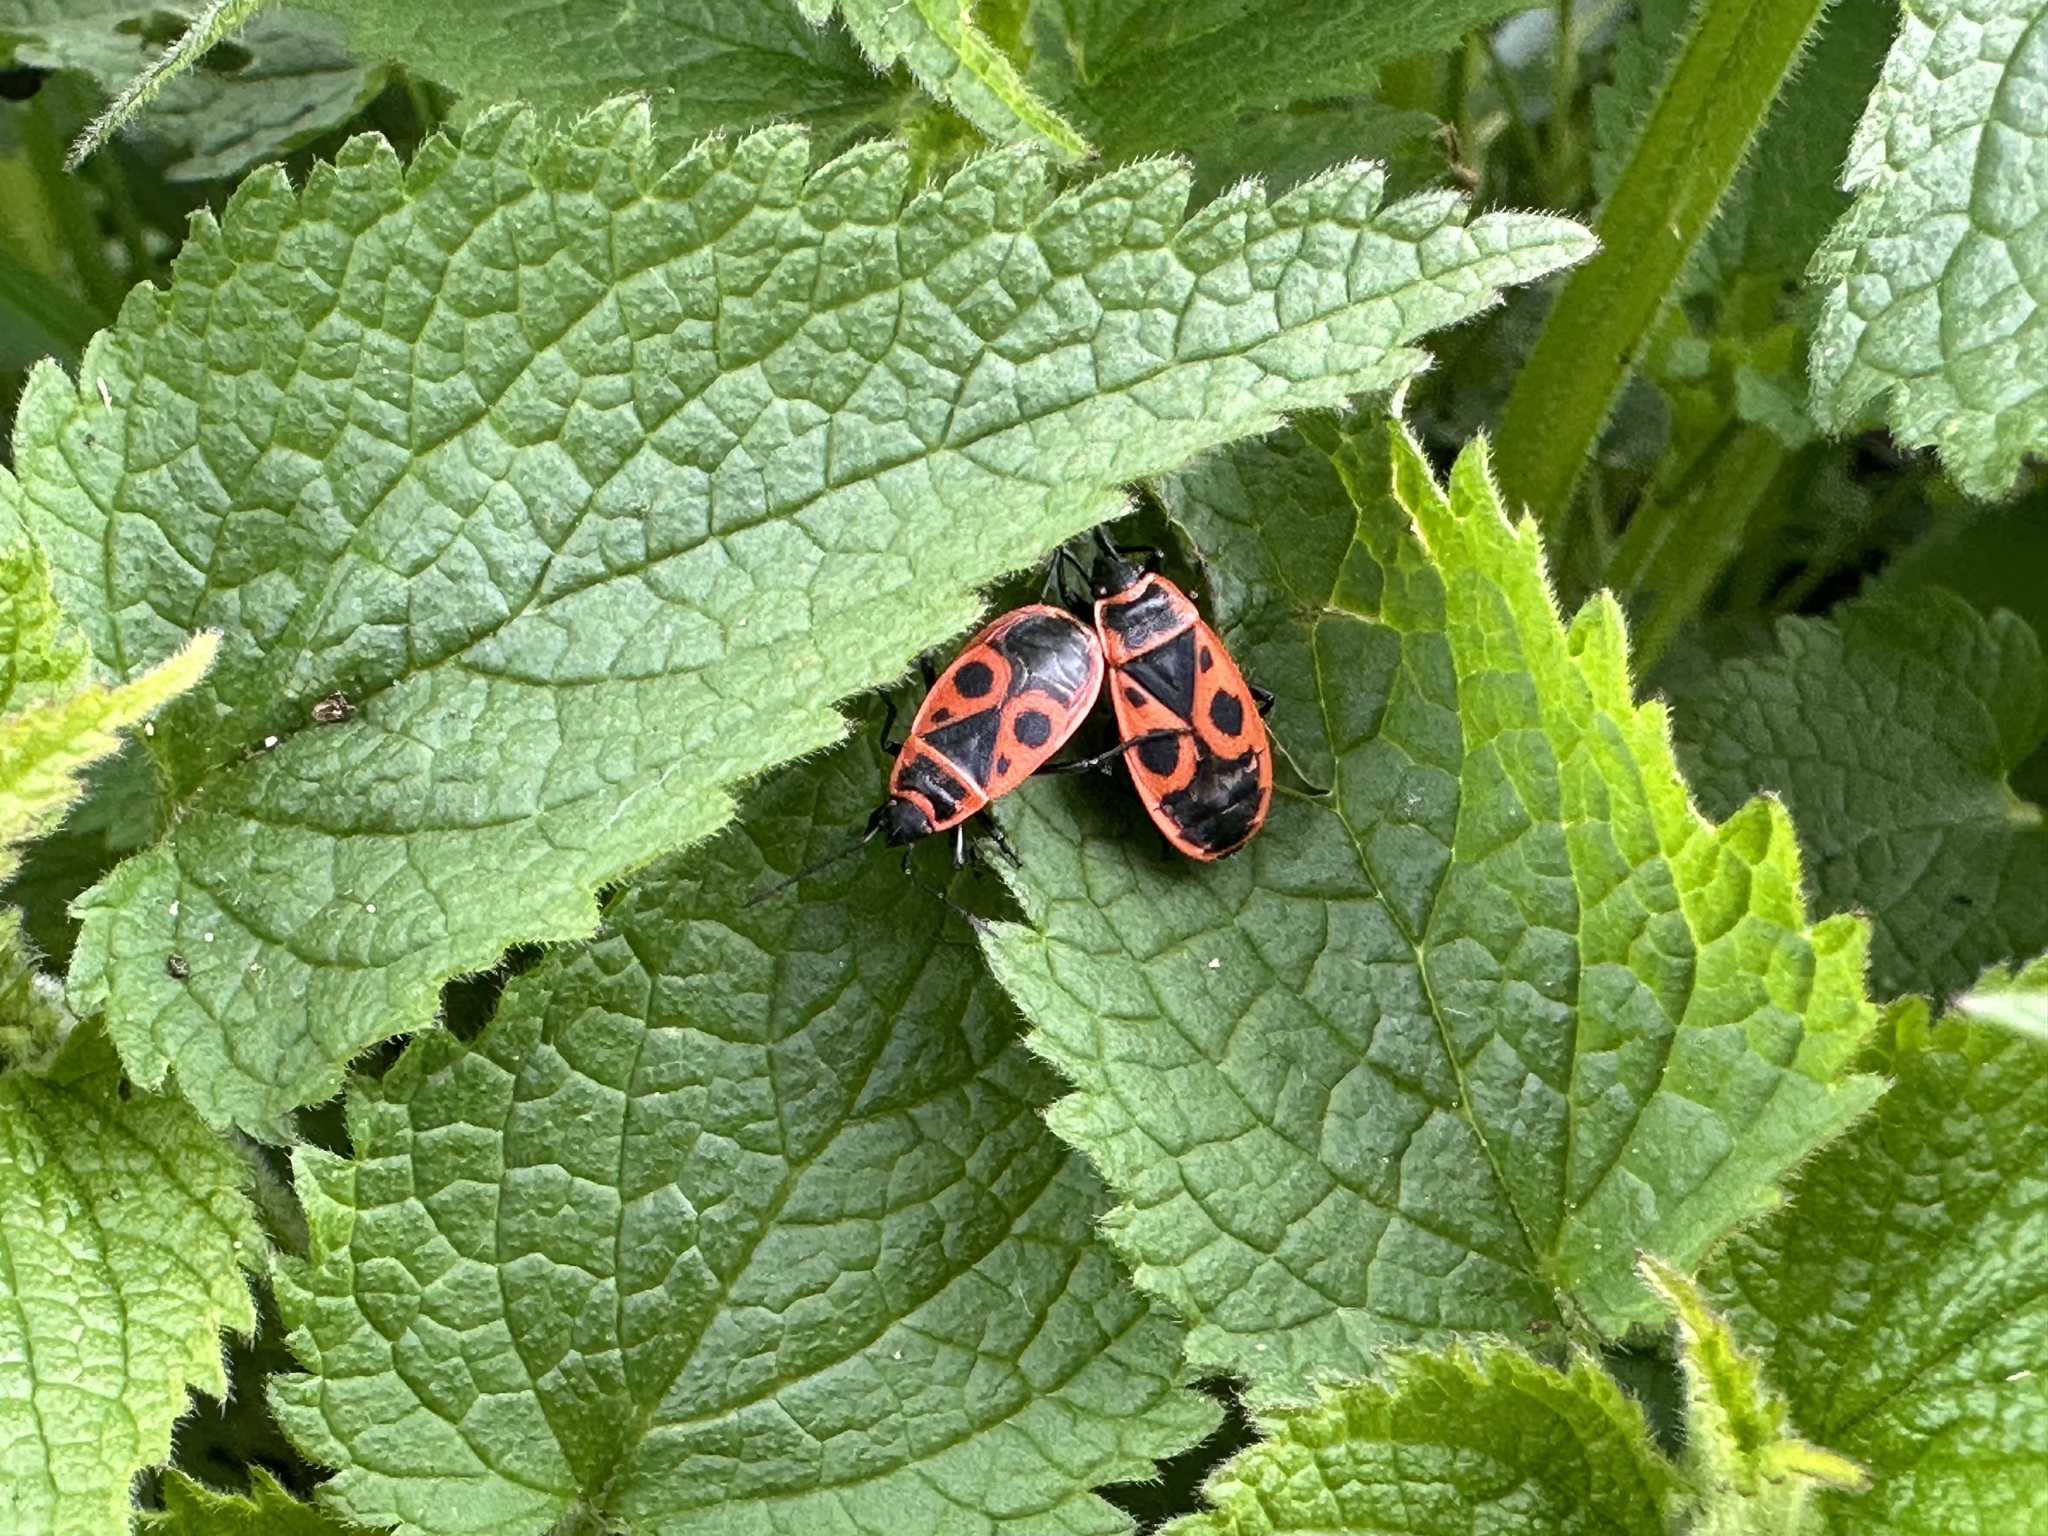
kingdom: Animalia
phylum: Arthropoda
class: Insecta
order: Hemiptera
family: Pyrrhocoridae
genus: Pyrrhocoris
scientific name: Pyrrhocoris apterus
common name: Firebug
